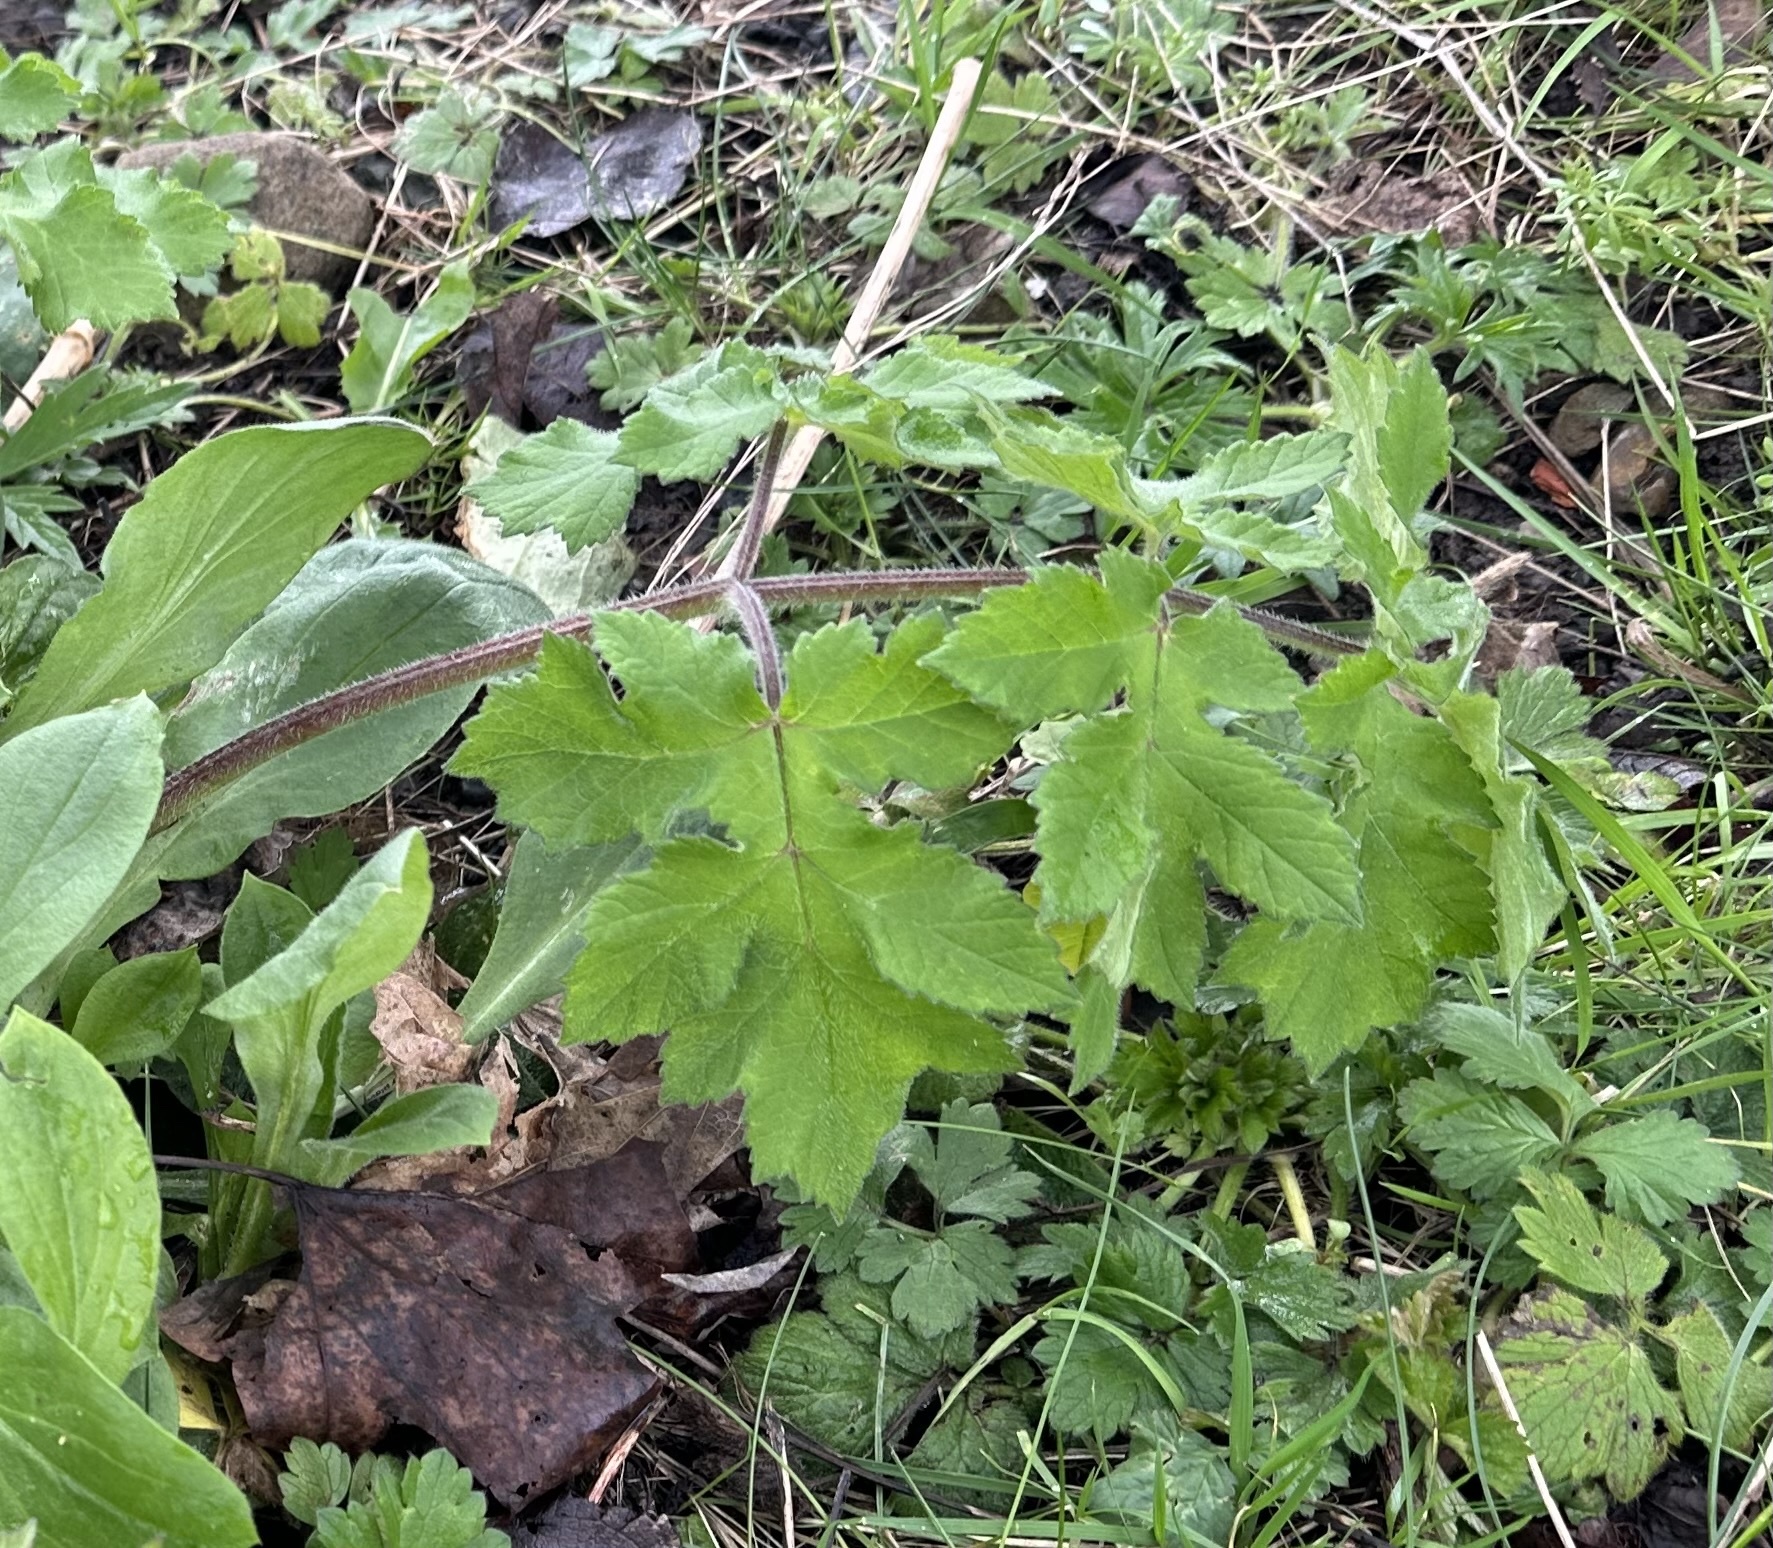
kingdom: Plantae
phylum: Tracheophyta
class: Magnoliopsida
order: Apiales
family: Apiaceae
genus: Heracleum
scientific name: Heracleum sphondylium
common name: Hogweed
